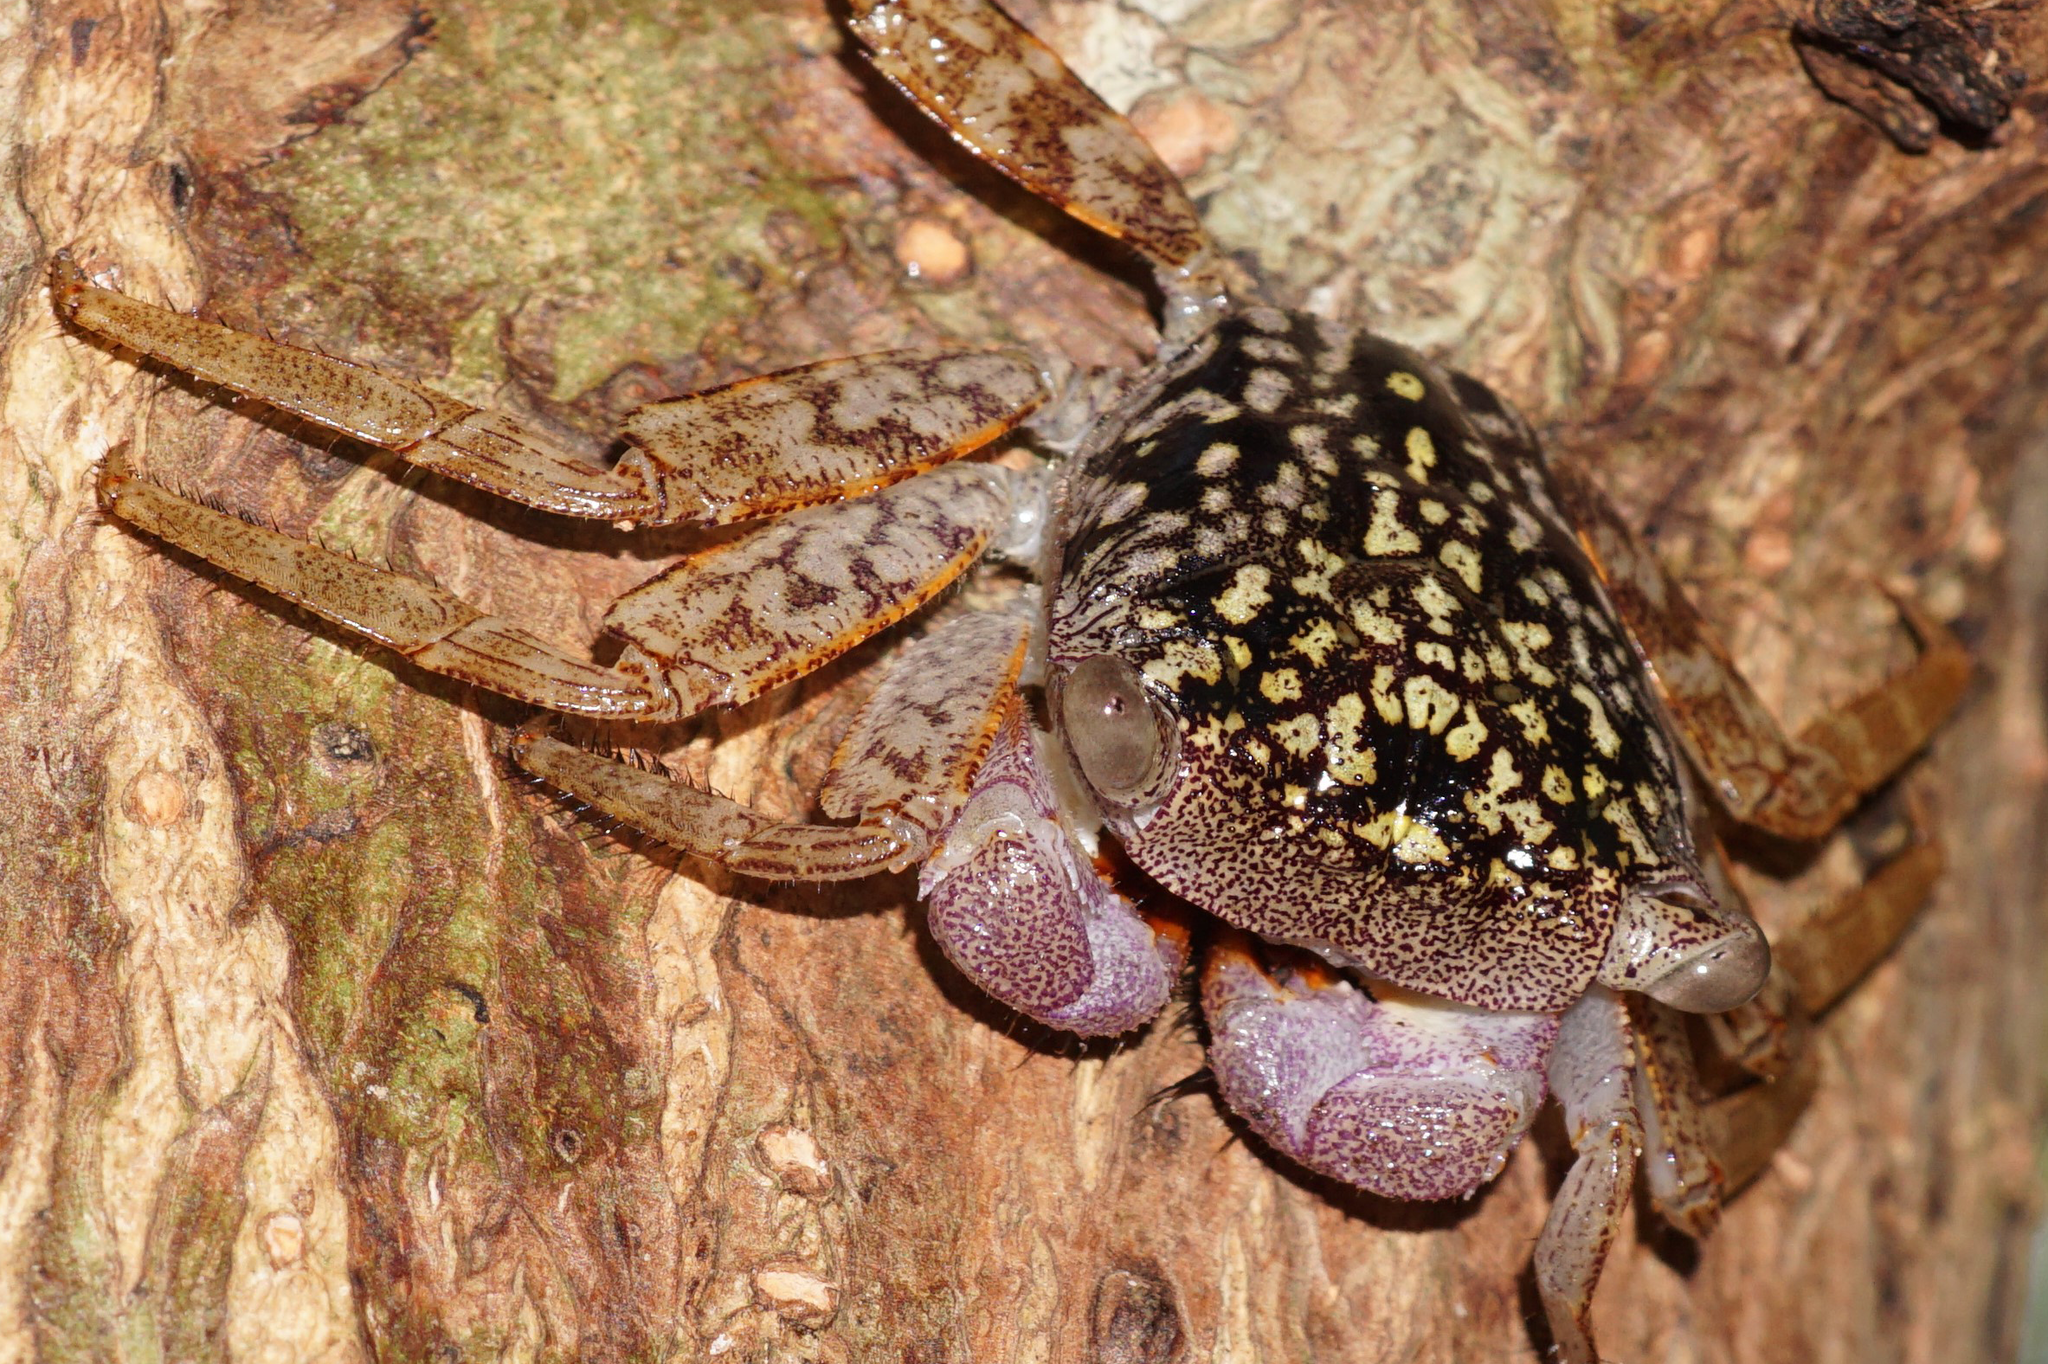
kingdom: Animalia
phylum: Arthropoda
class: Malacostraca
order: Decapoda
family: Sesarmidae
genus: Aratus
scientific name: Aratus pisonii
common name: Mangrove crab
